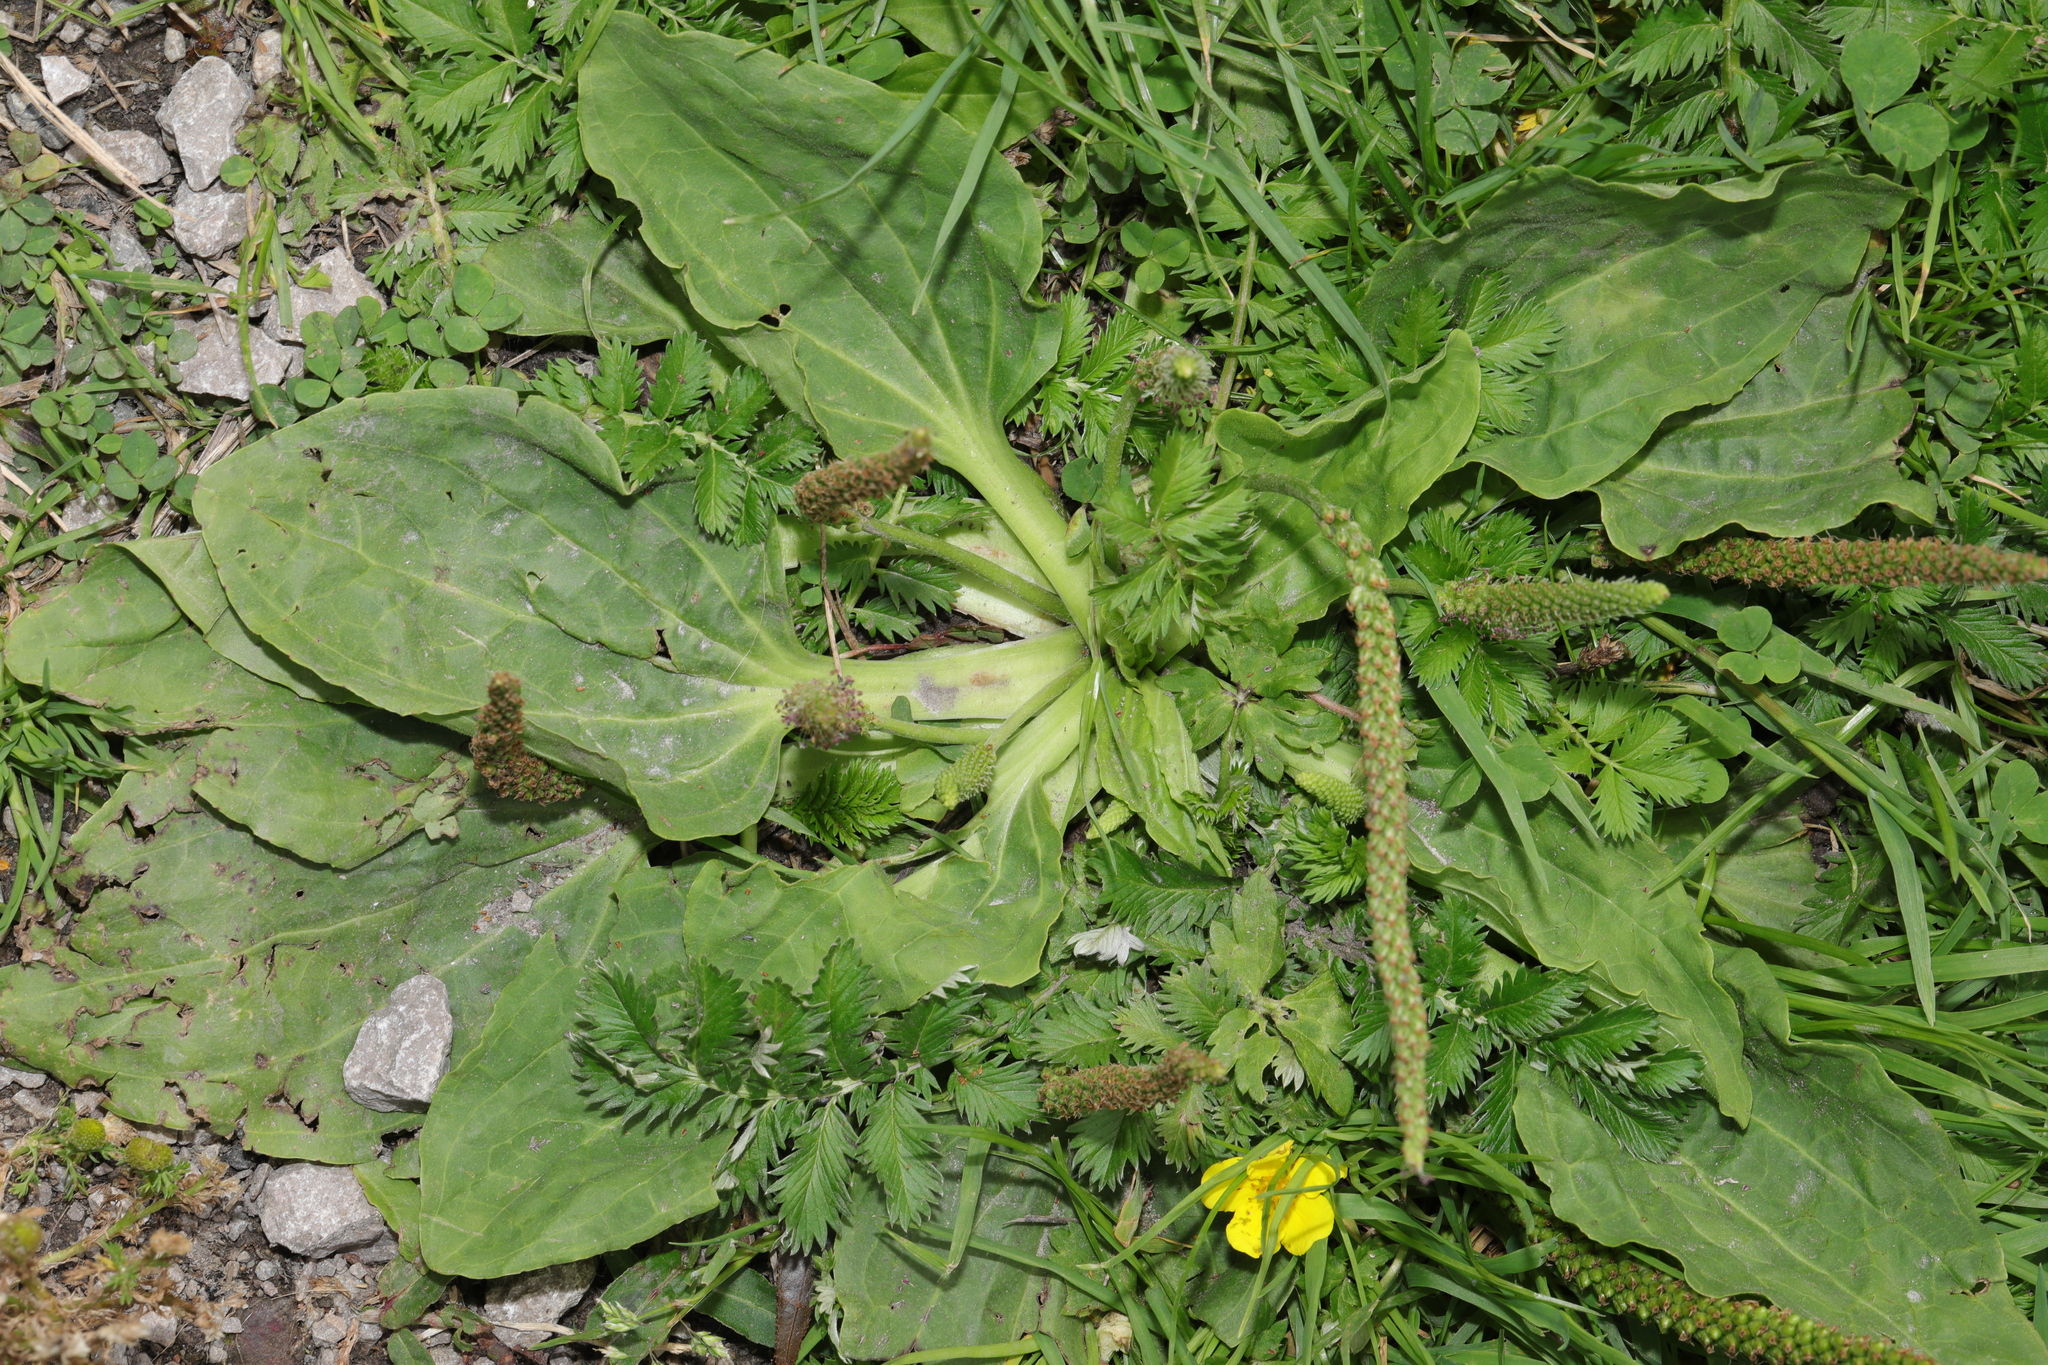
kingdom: Plantae
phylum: Tracheophyta
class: Magnoliopsida
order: Lamiales
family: Plantaginaceae
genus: Plantago
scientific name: Plantago major
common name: Common plantain
